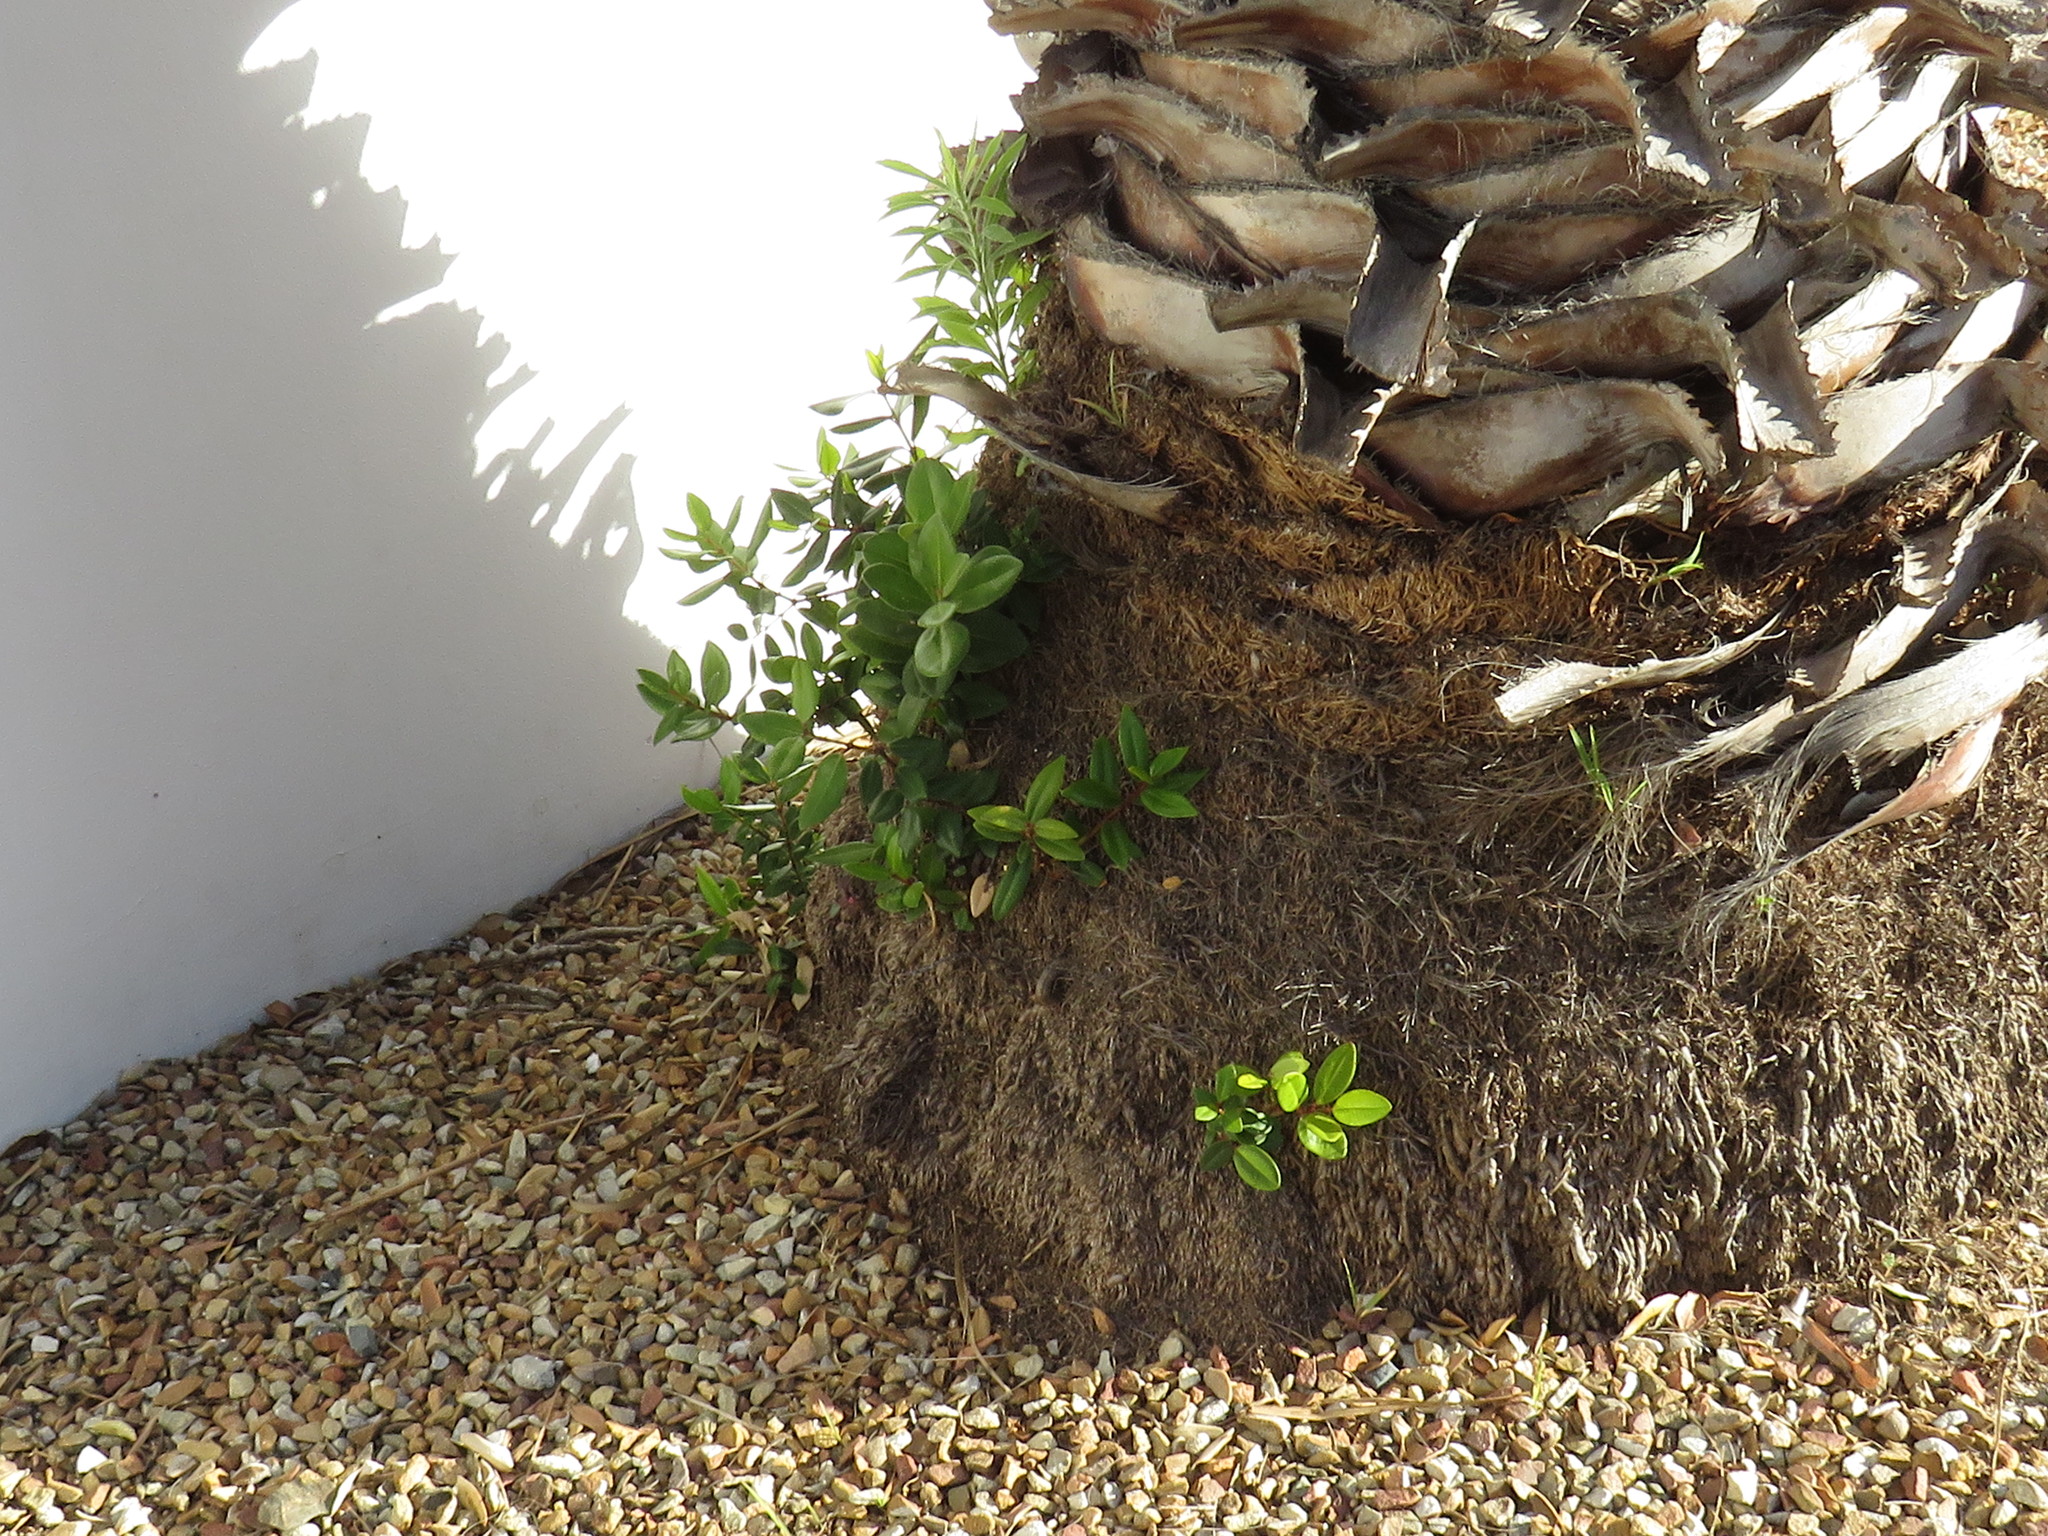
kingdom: Plantae
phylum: Tracheophyta
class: Magnoliopsida
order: Myrtales
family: Myrtaceae
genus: Metrosideros
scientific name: Metrosideros excelsa
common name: New zealand christmastree
